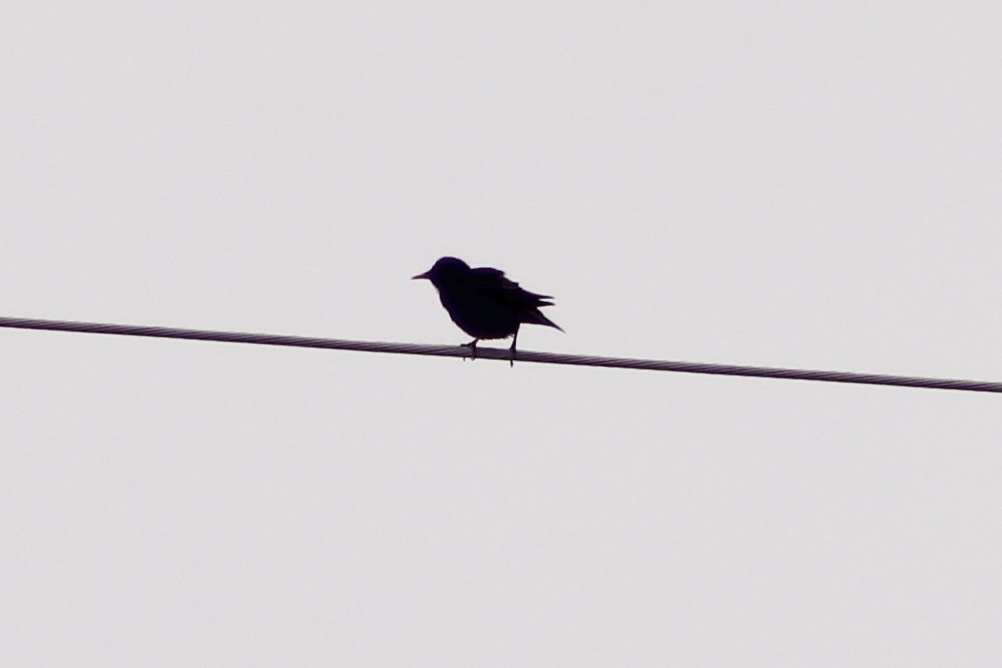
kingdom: Animalia
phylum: Chordata
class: Aves
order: Passeriformes
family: Sturnidae
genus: Sturnus
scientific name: Sturnus vulgaris
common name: Common starling
